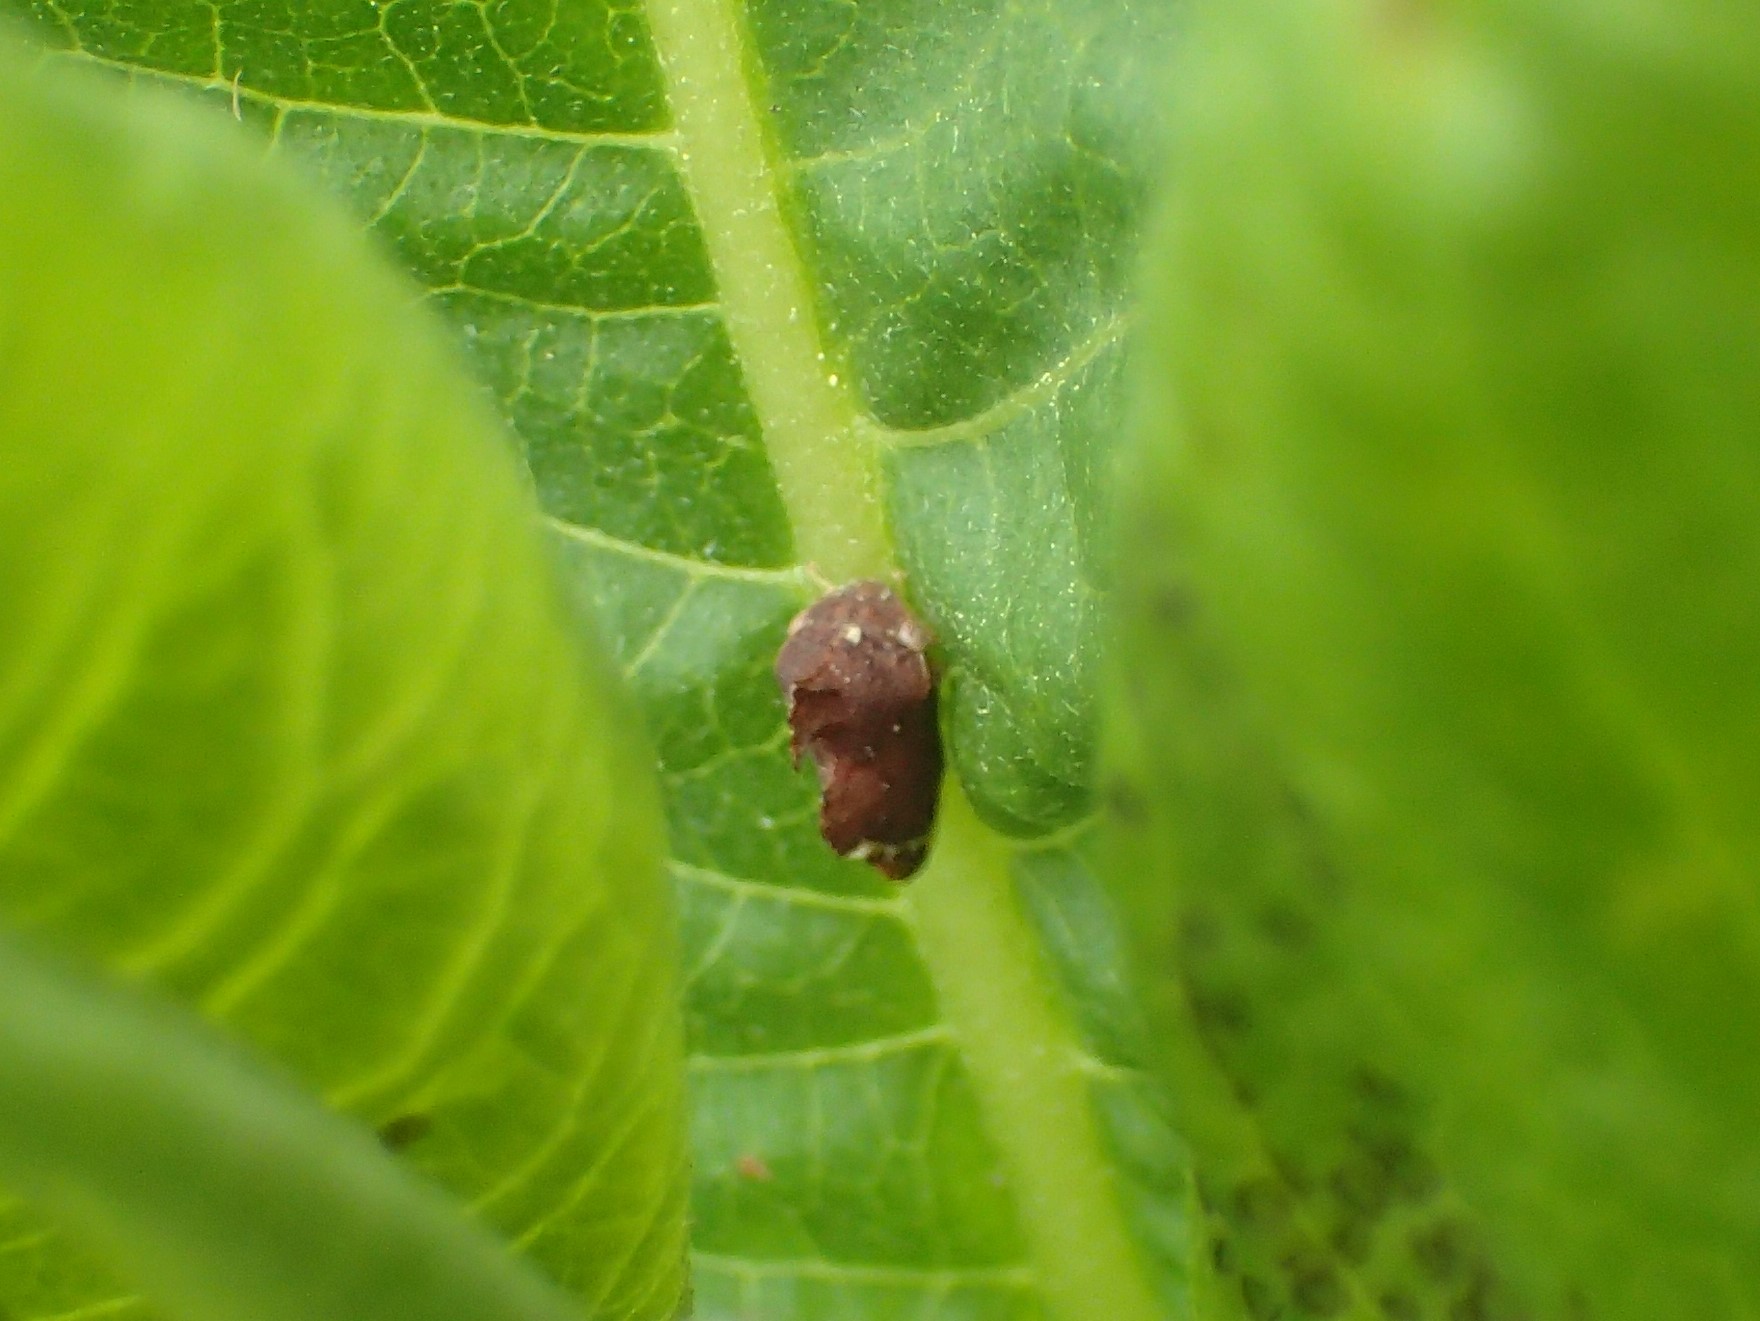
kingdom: Animalia
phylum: Arthropoda
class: Insecta
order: Hemiptera
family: Membracidae
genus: Entylia
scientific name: Entylia carinata
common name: Keeled treehopper
